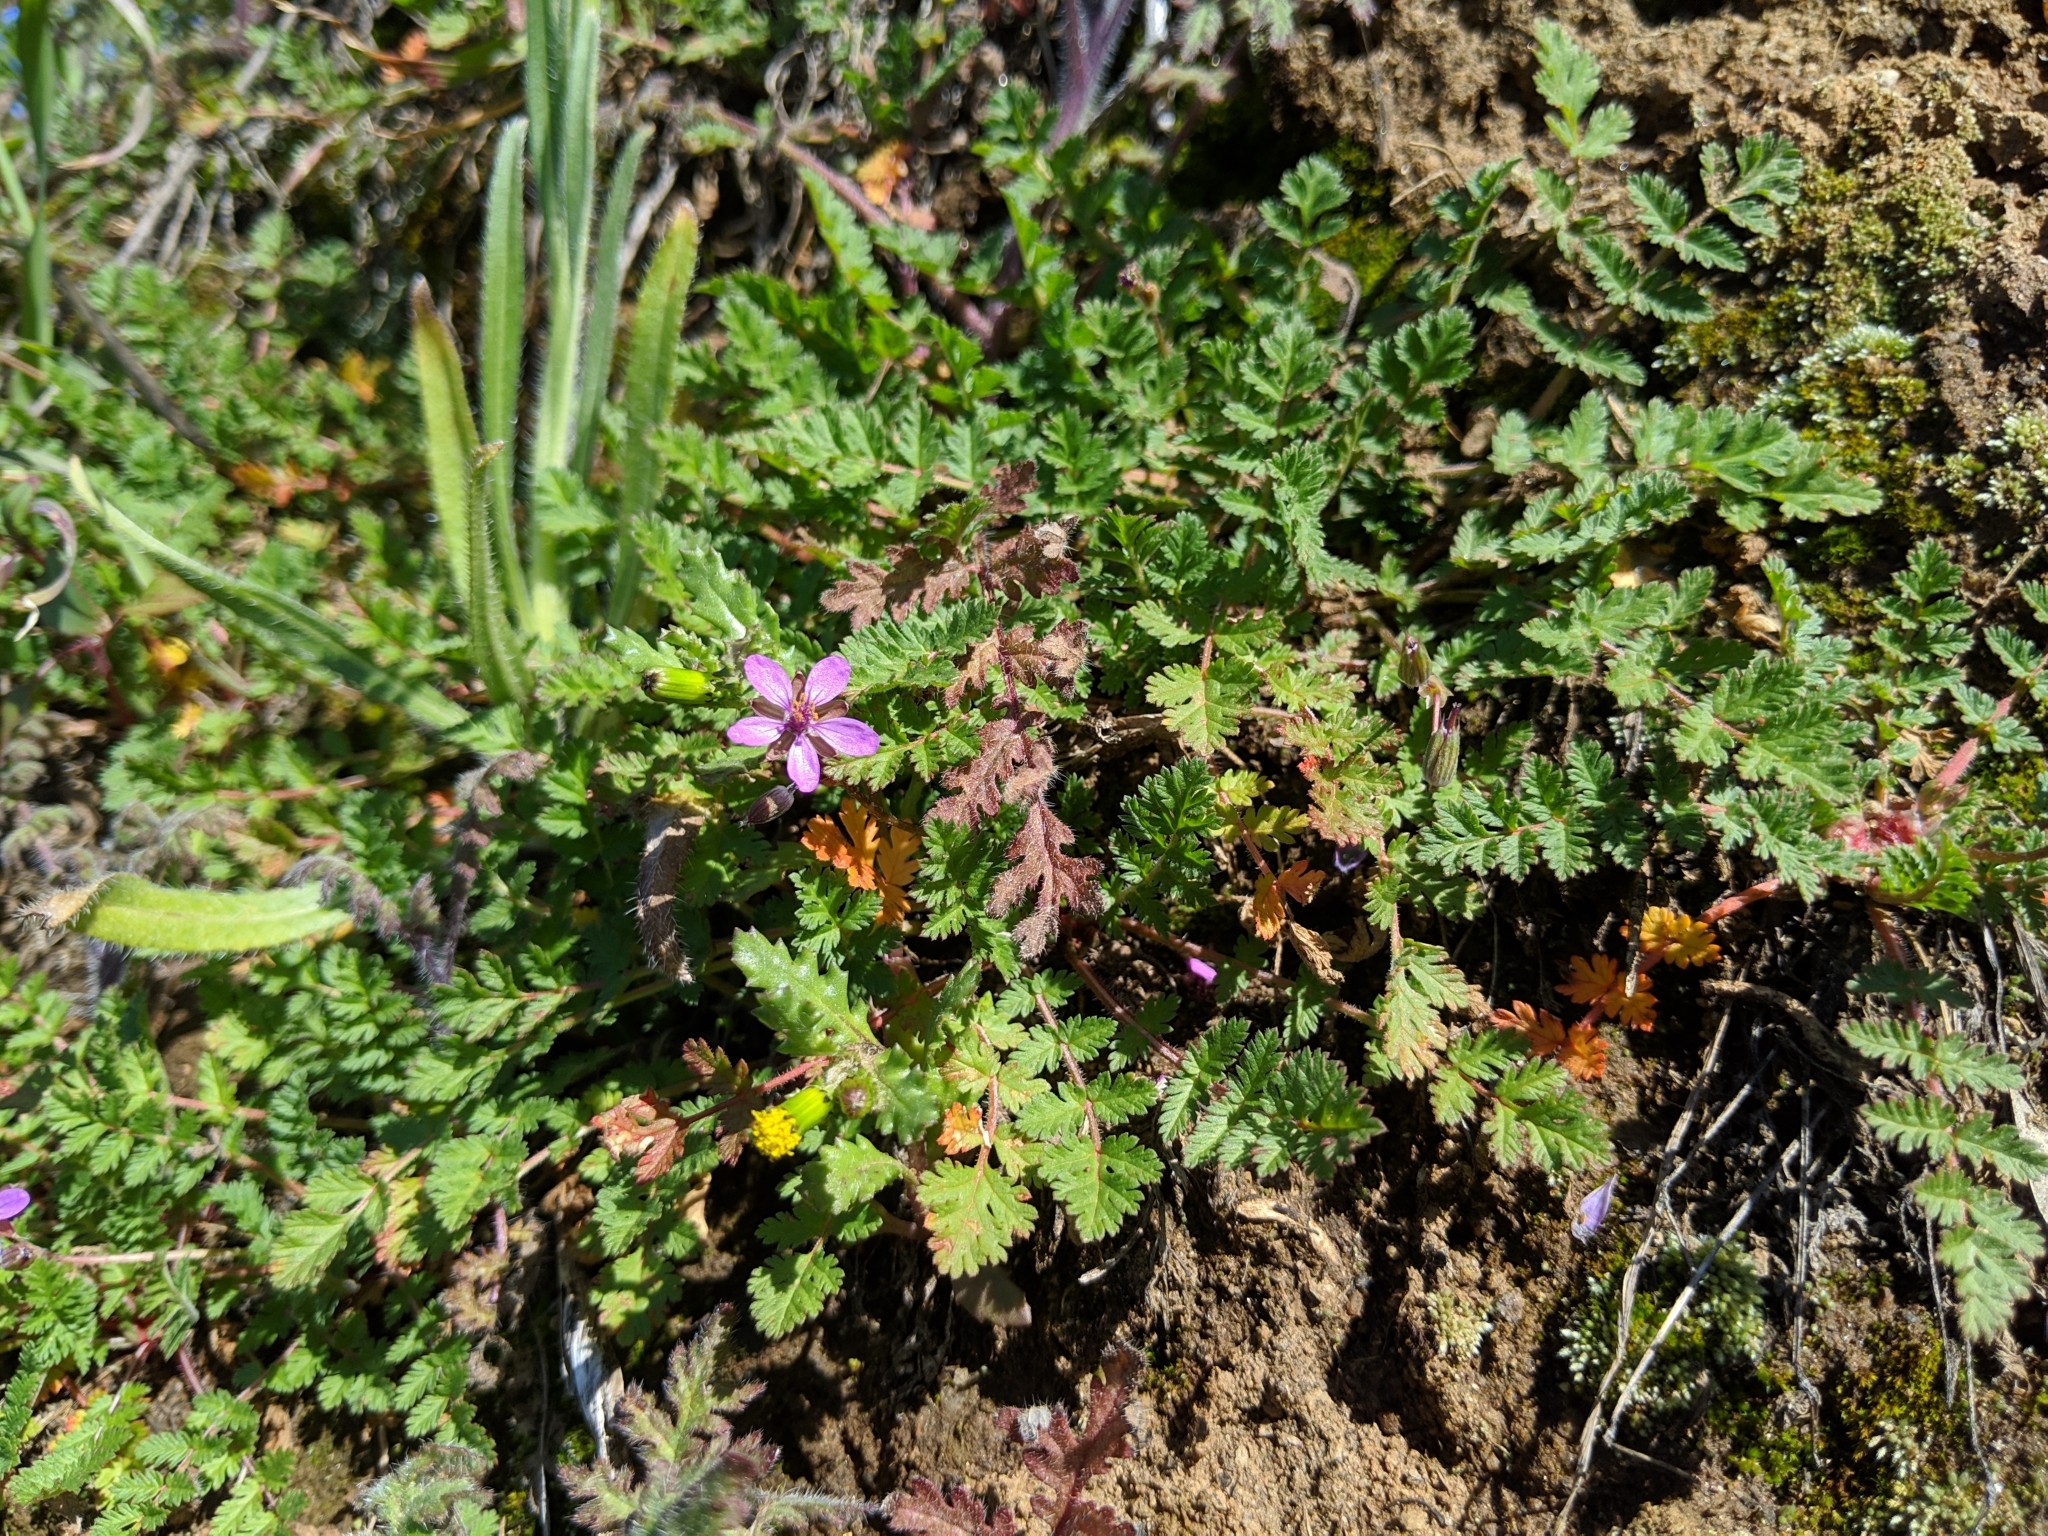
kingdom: Plantae
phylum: Tracheophyta
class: Magnoliopsida
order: Geraniales
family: Geraniaceae
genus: Erodium
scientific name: Erodium cicutarium
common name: Common stork's-bill
